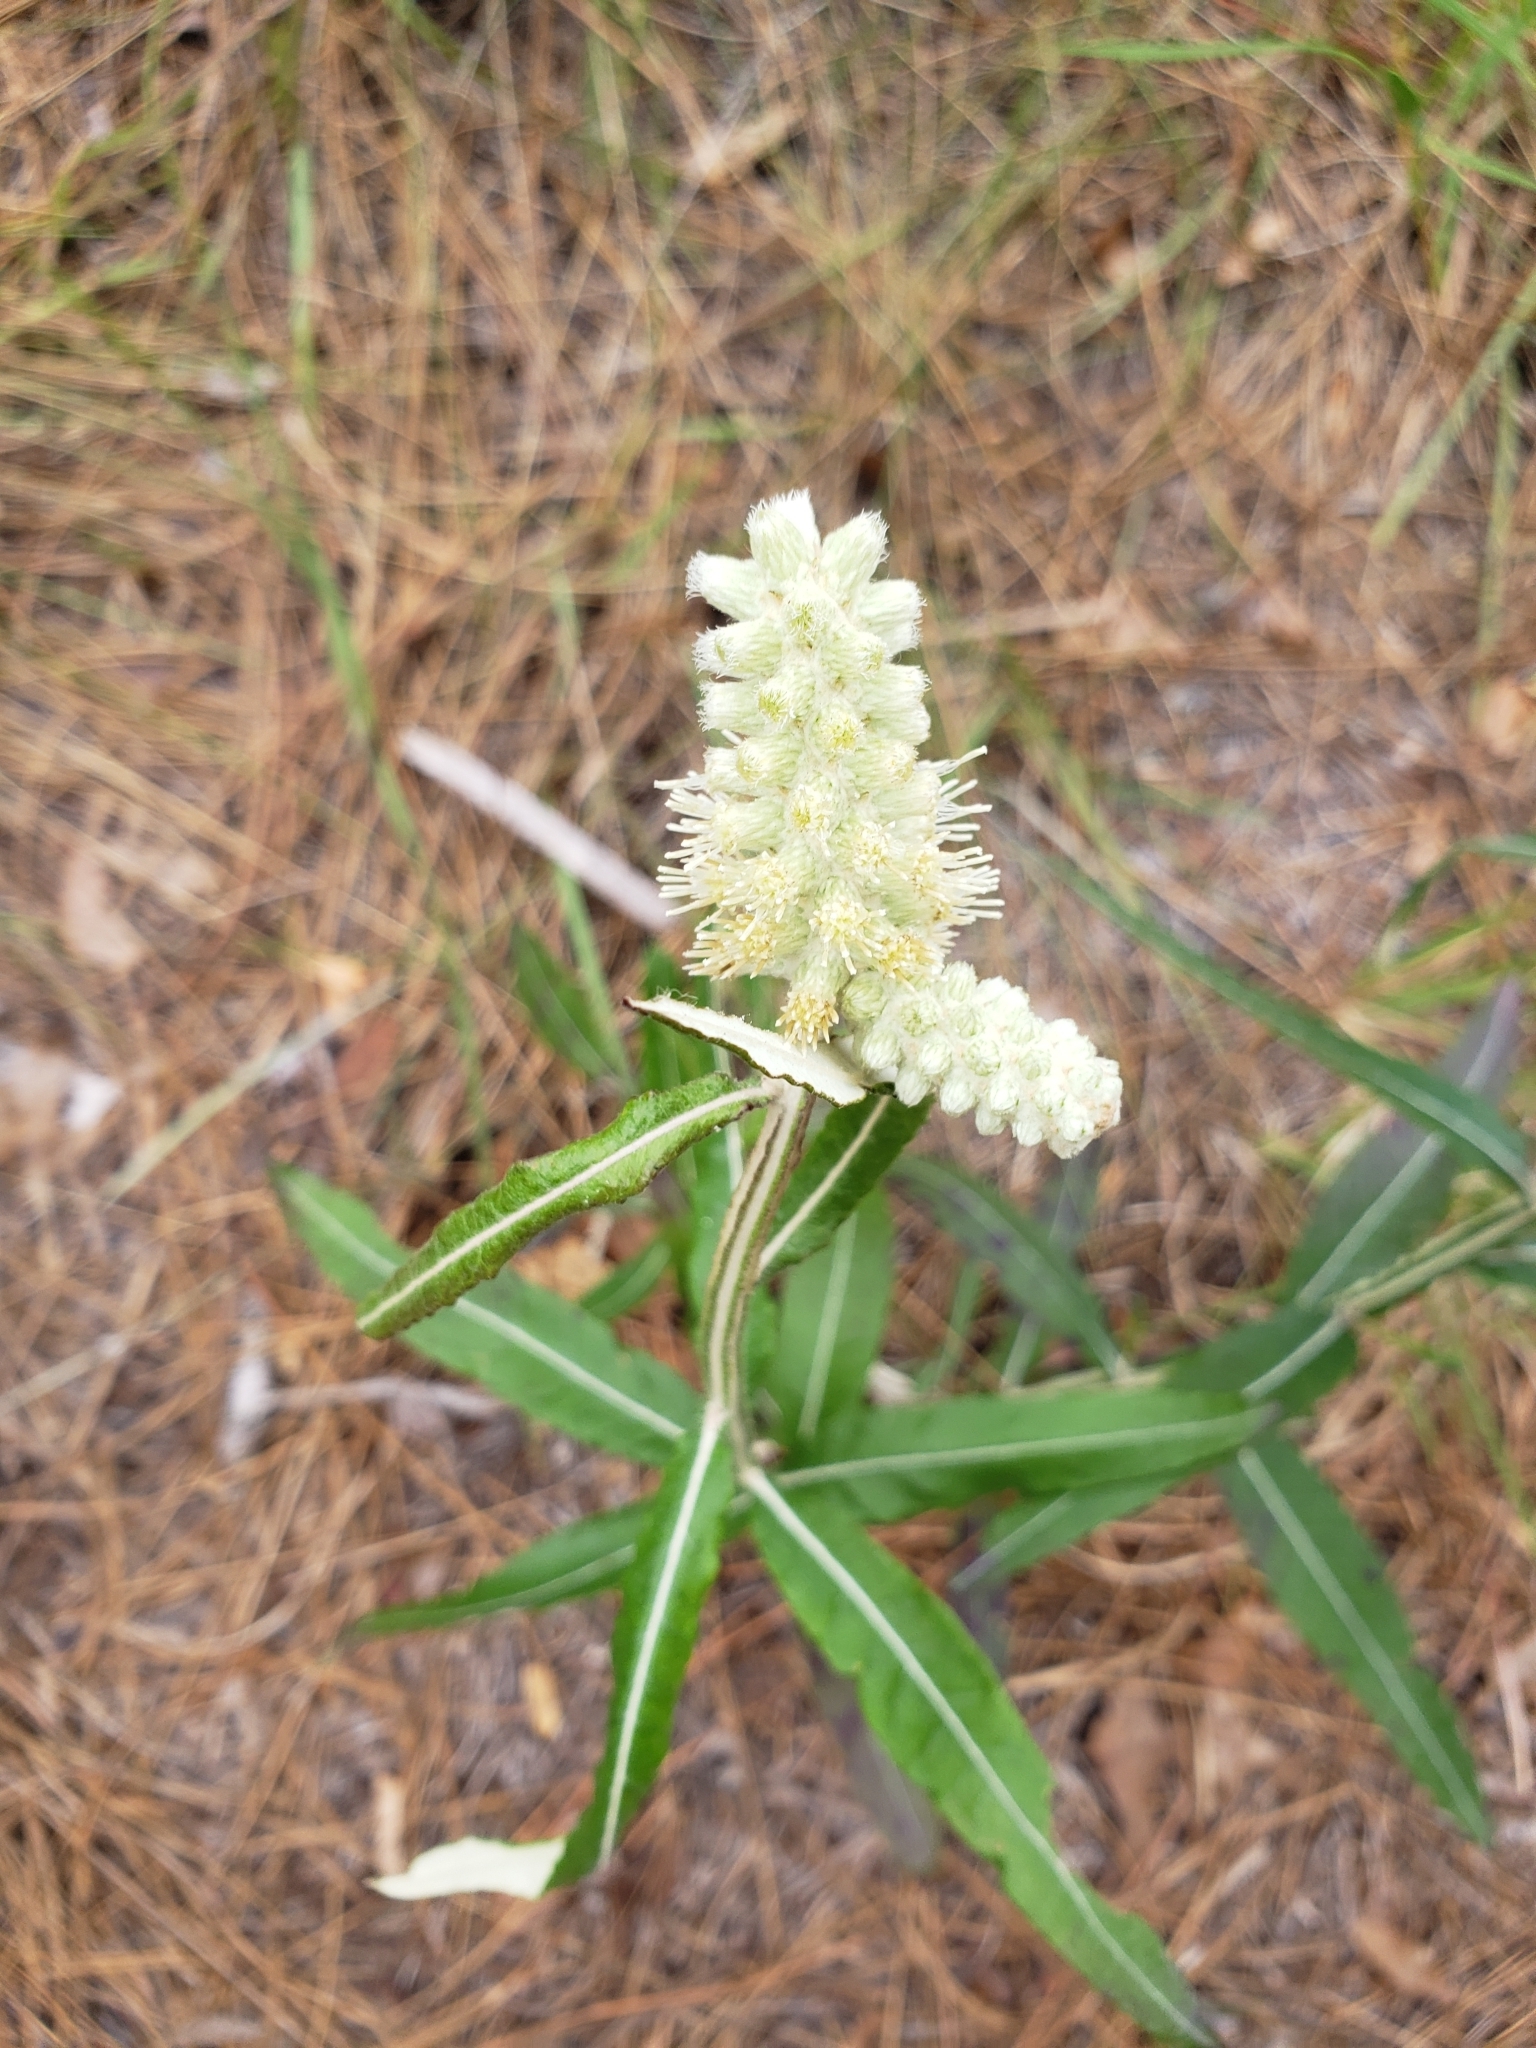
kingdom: Plantae
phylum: Tracheophyta
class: Magnoliopsida
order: Asterales
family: Asteraceae
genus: Pterocaulon
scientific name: Pterocaulon pycnostachyum
